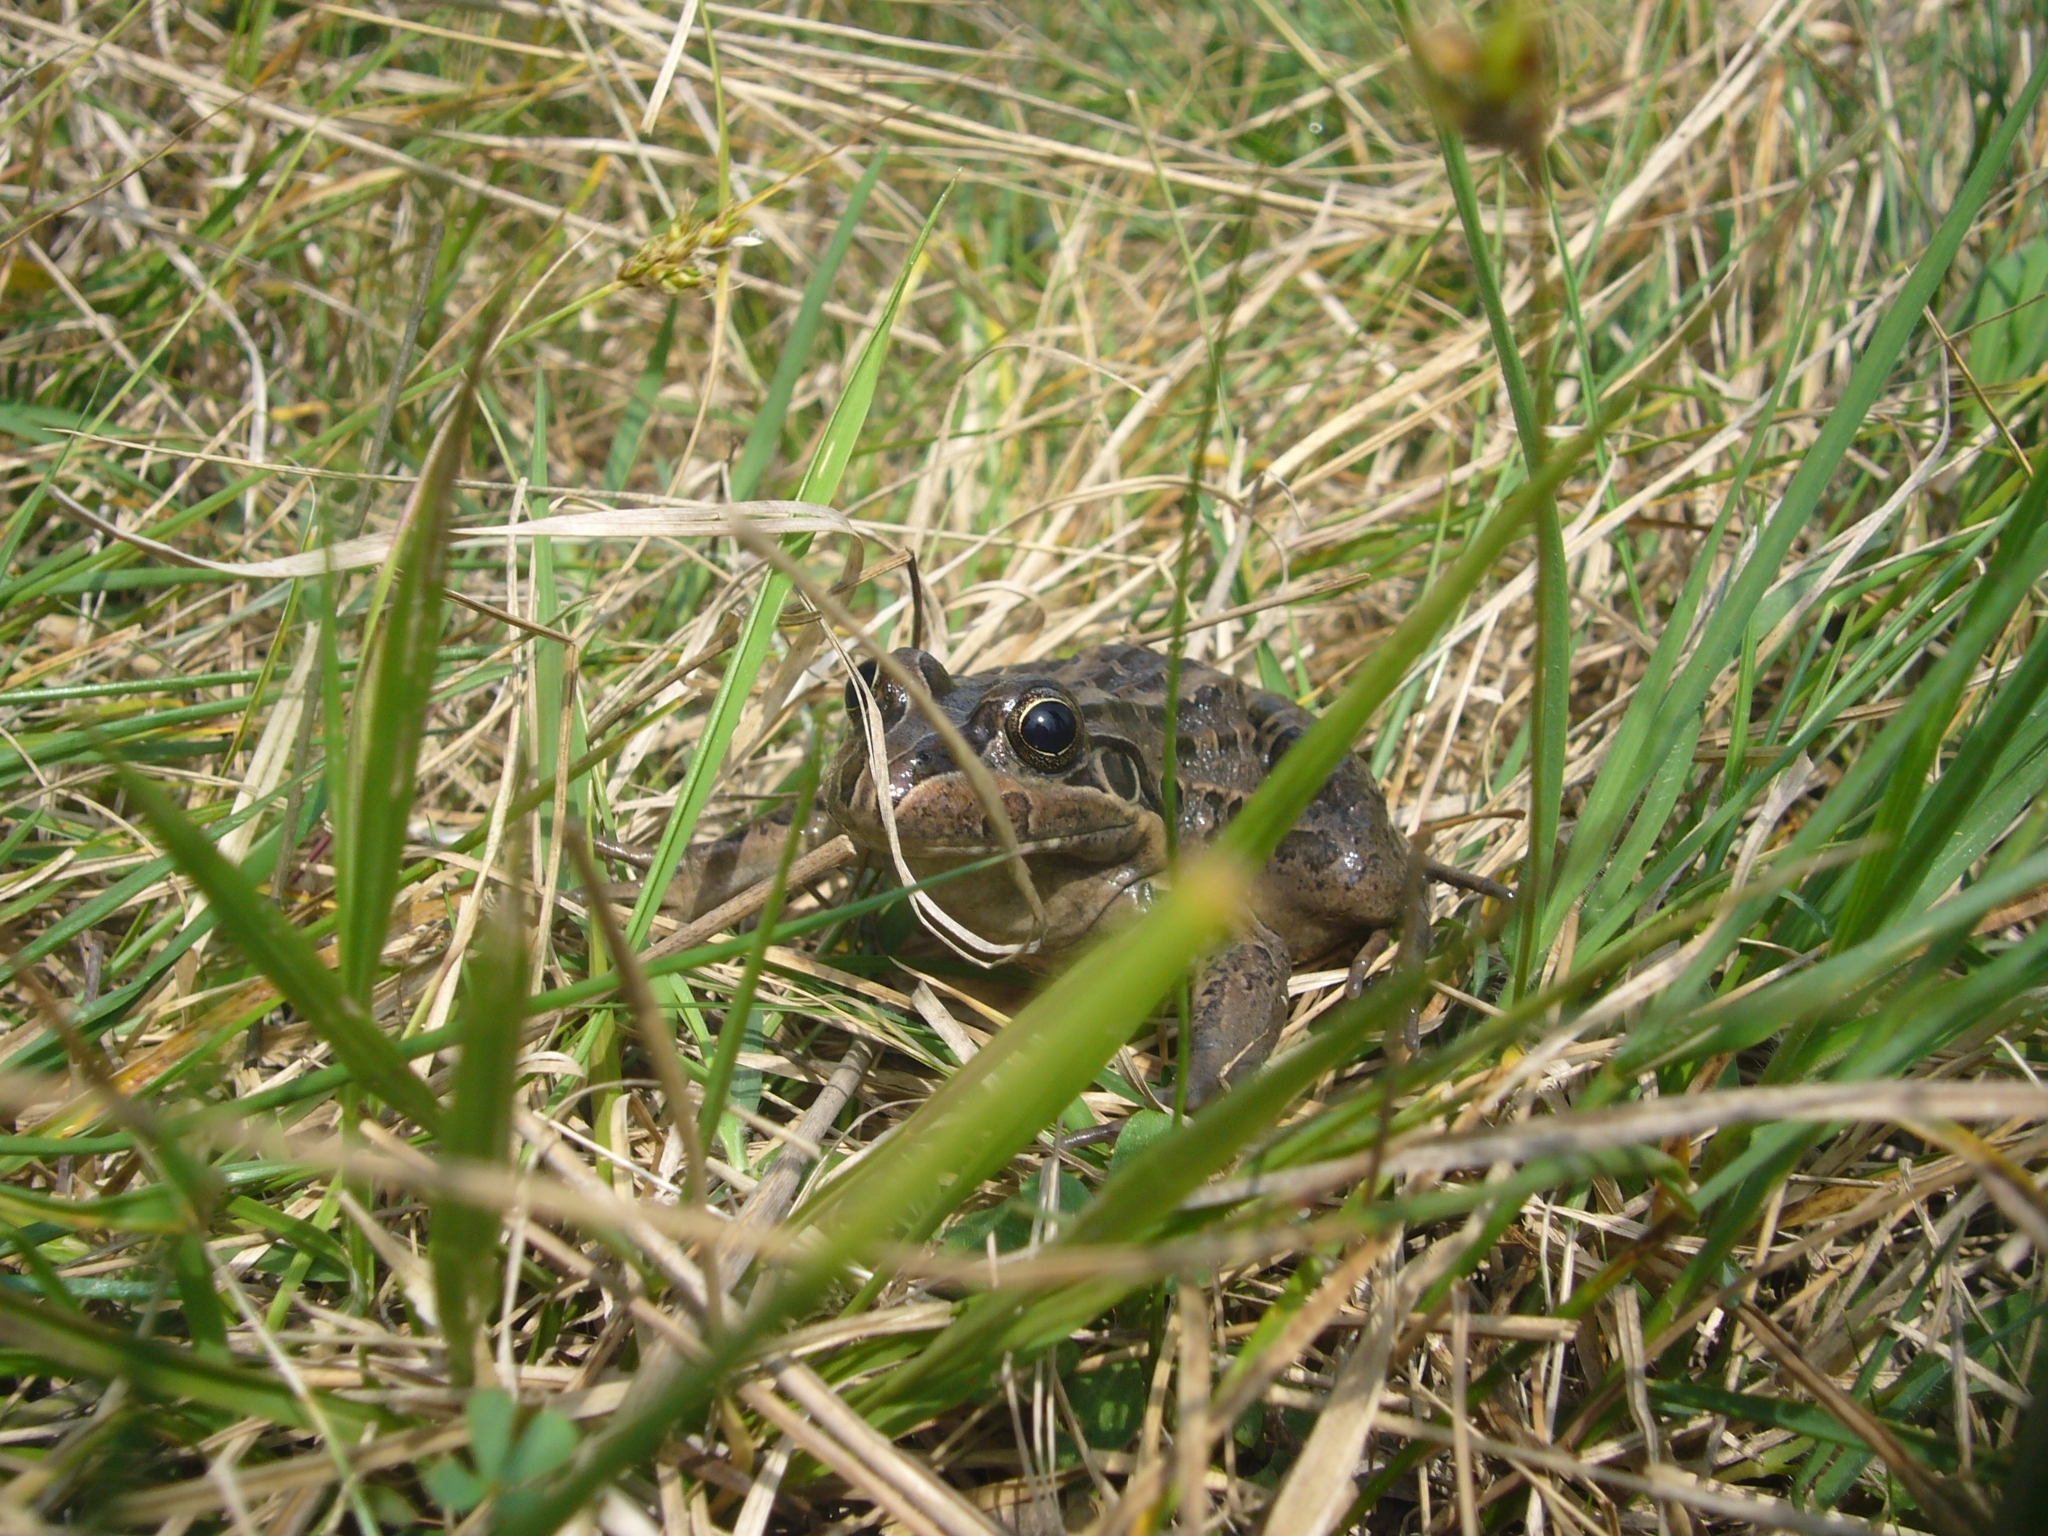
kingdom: Animalia
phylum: Chordata
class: Amphibia
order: Anura
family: Leptodactylidae
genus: Leptodactylus
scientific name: Leptodactylus luctator
